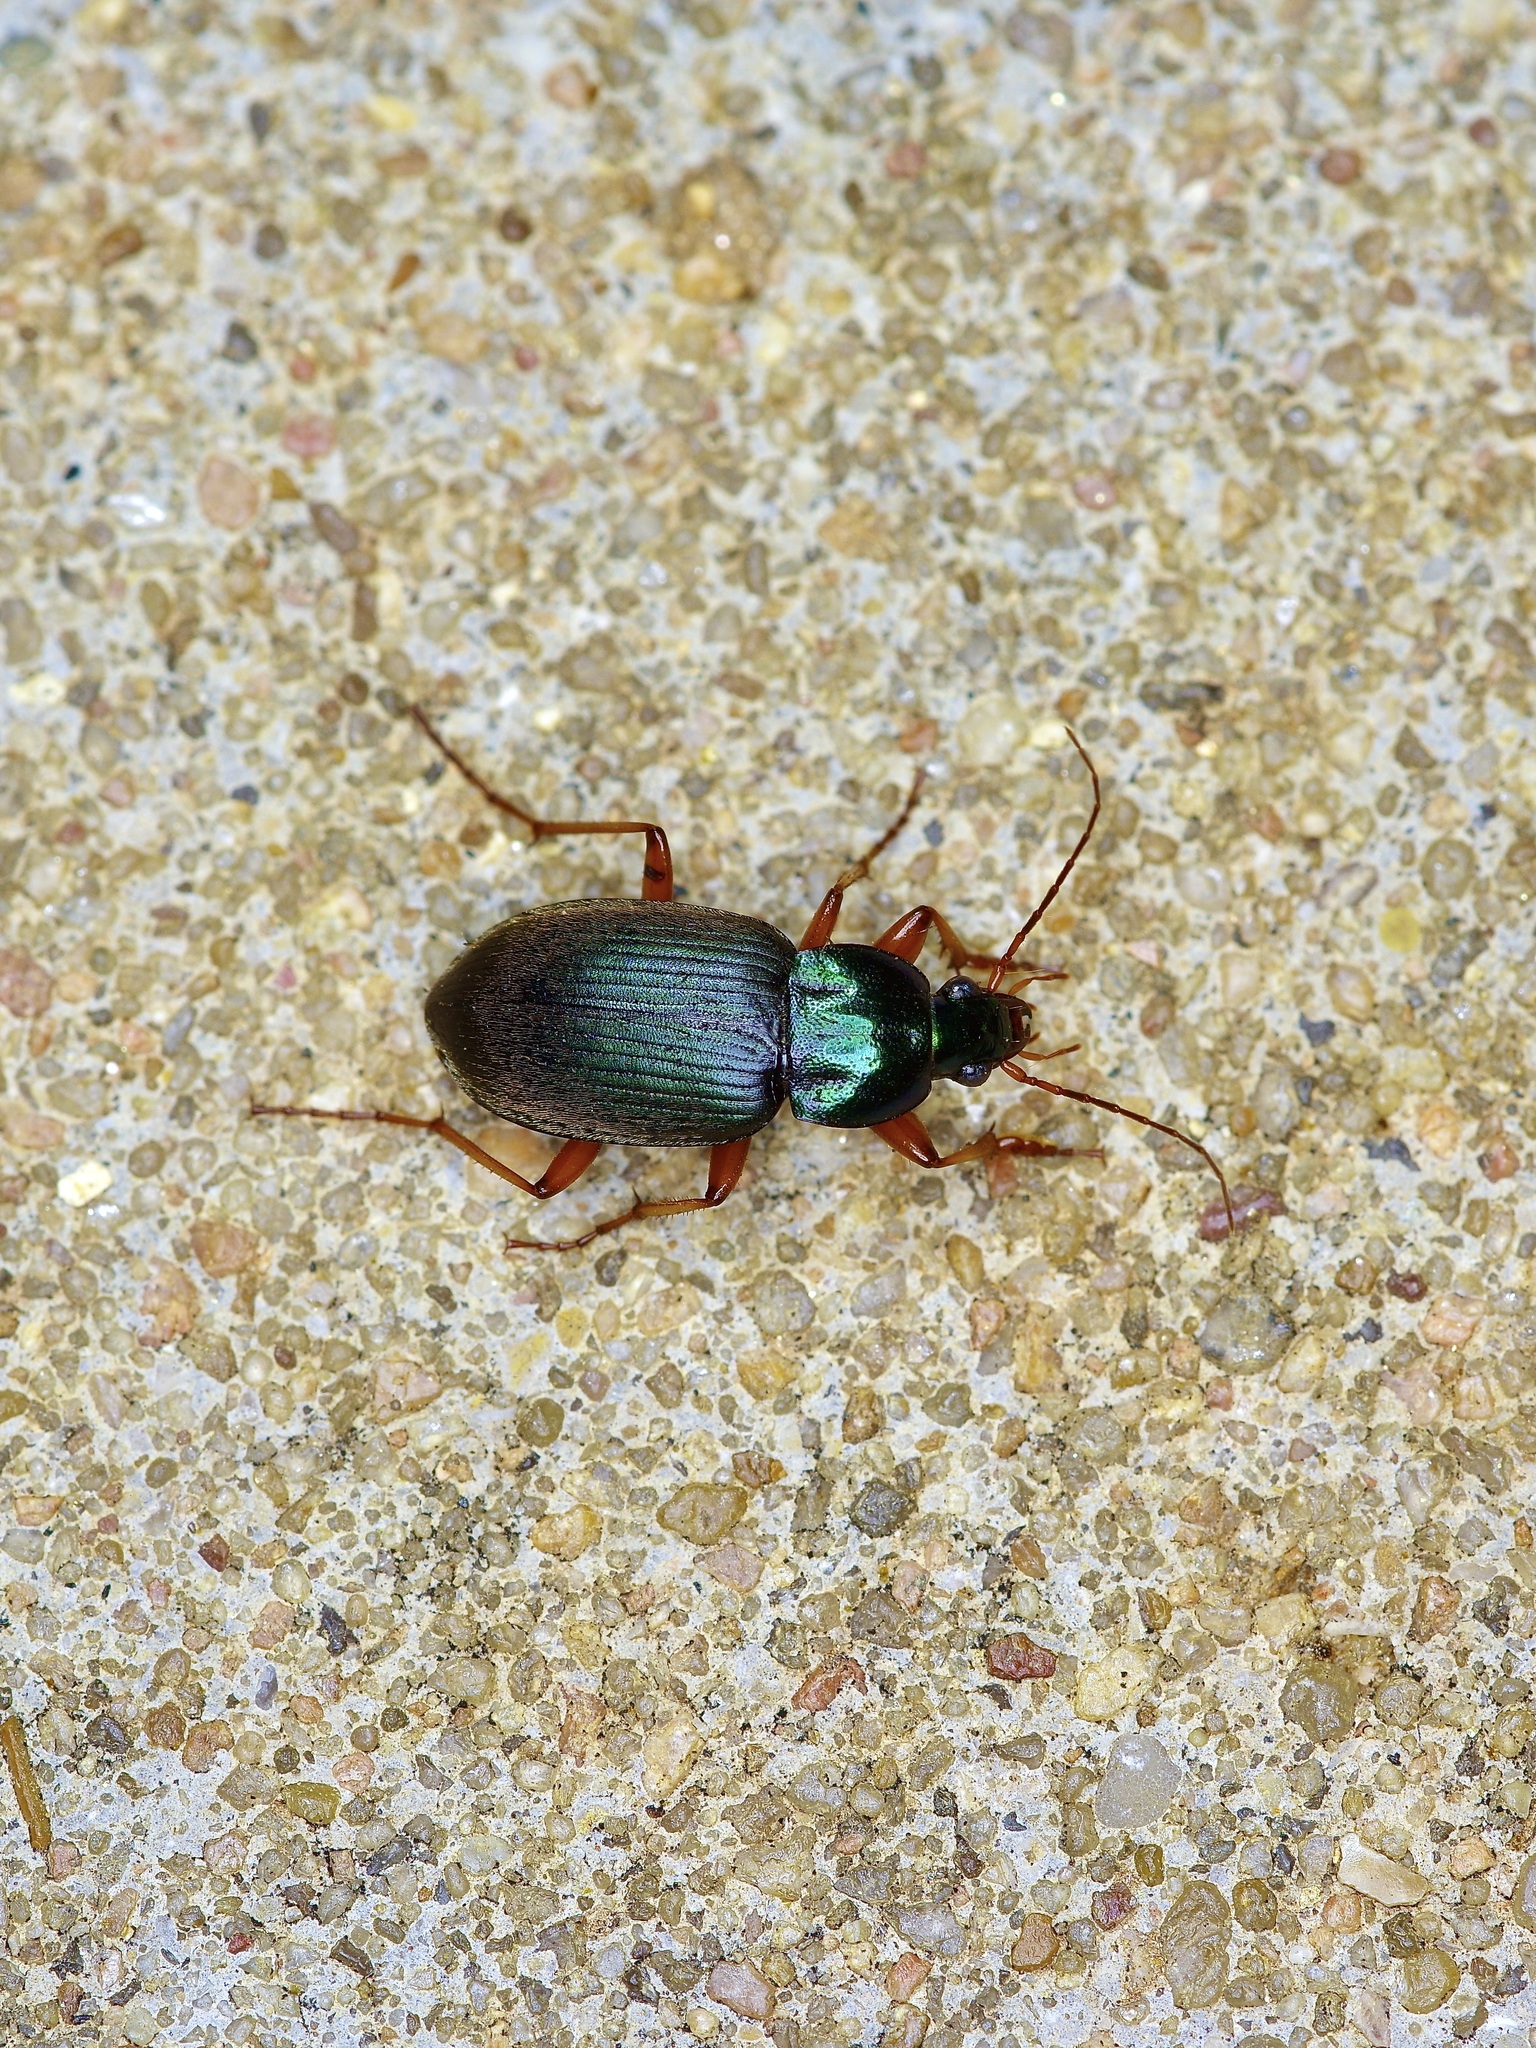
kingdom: Animalia
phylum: Arthropoda
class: Insecta
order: Coleoptera
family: Carabidae
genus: Chlaenius
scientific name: Chlaenius texanus
